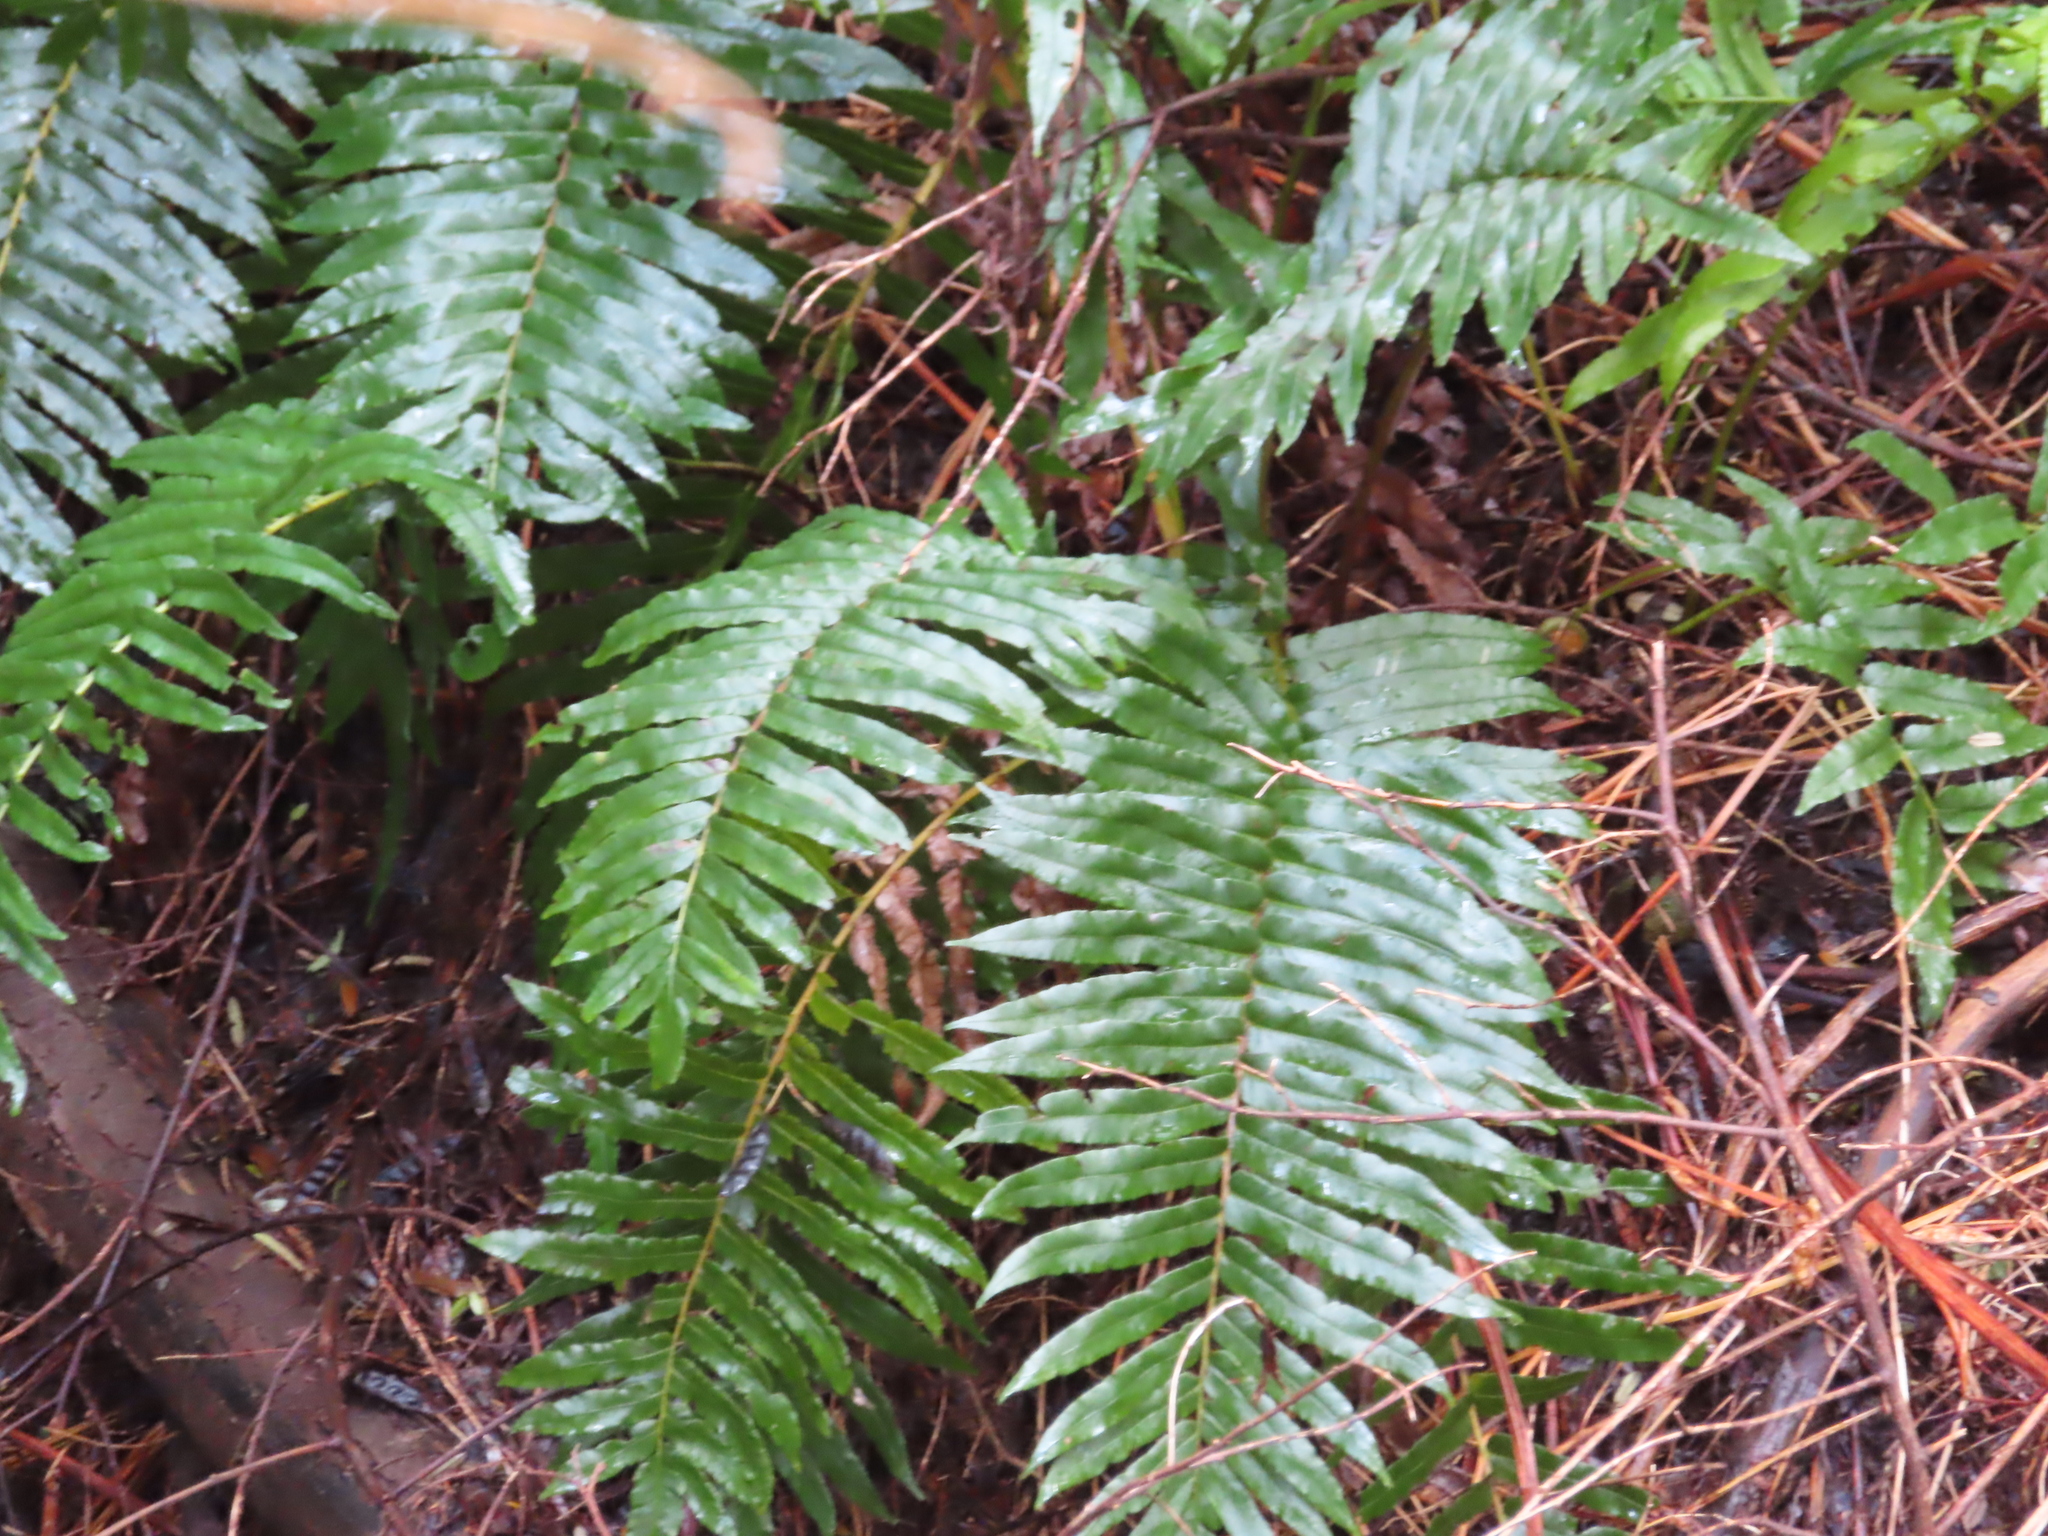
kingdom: Plantae
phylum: Tracheophyta
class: Polypodiopsida
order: Polypodiales
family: Blechnaceae
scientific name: Blechnaceae
